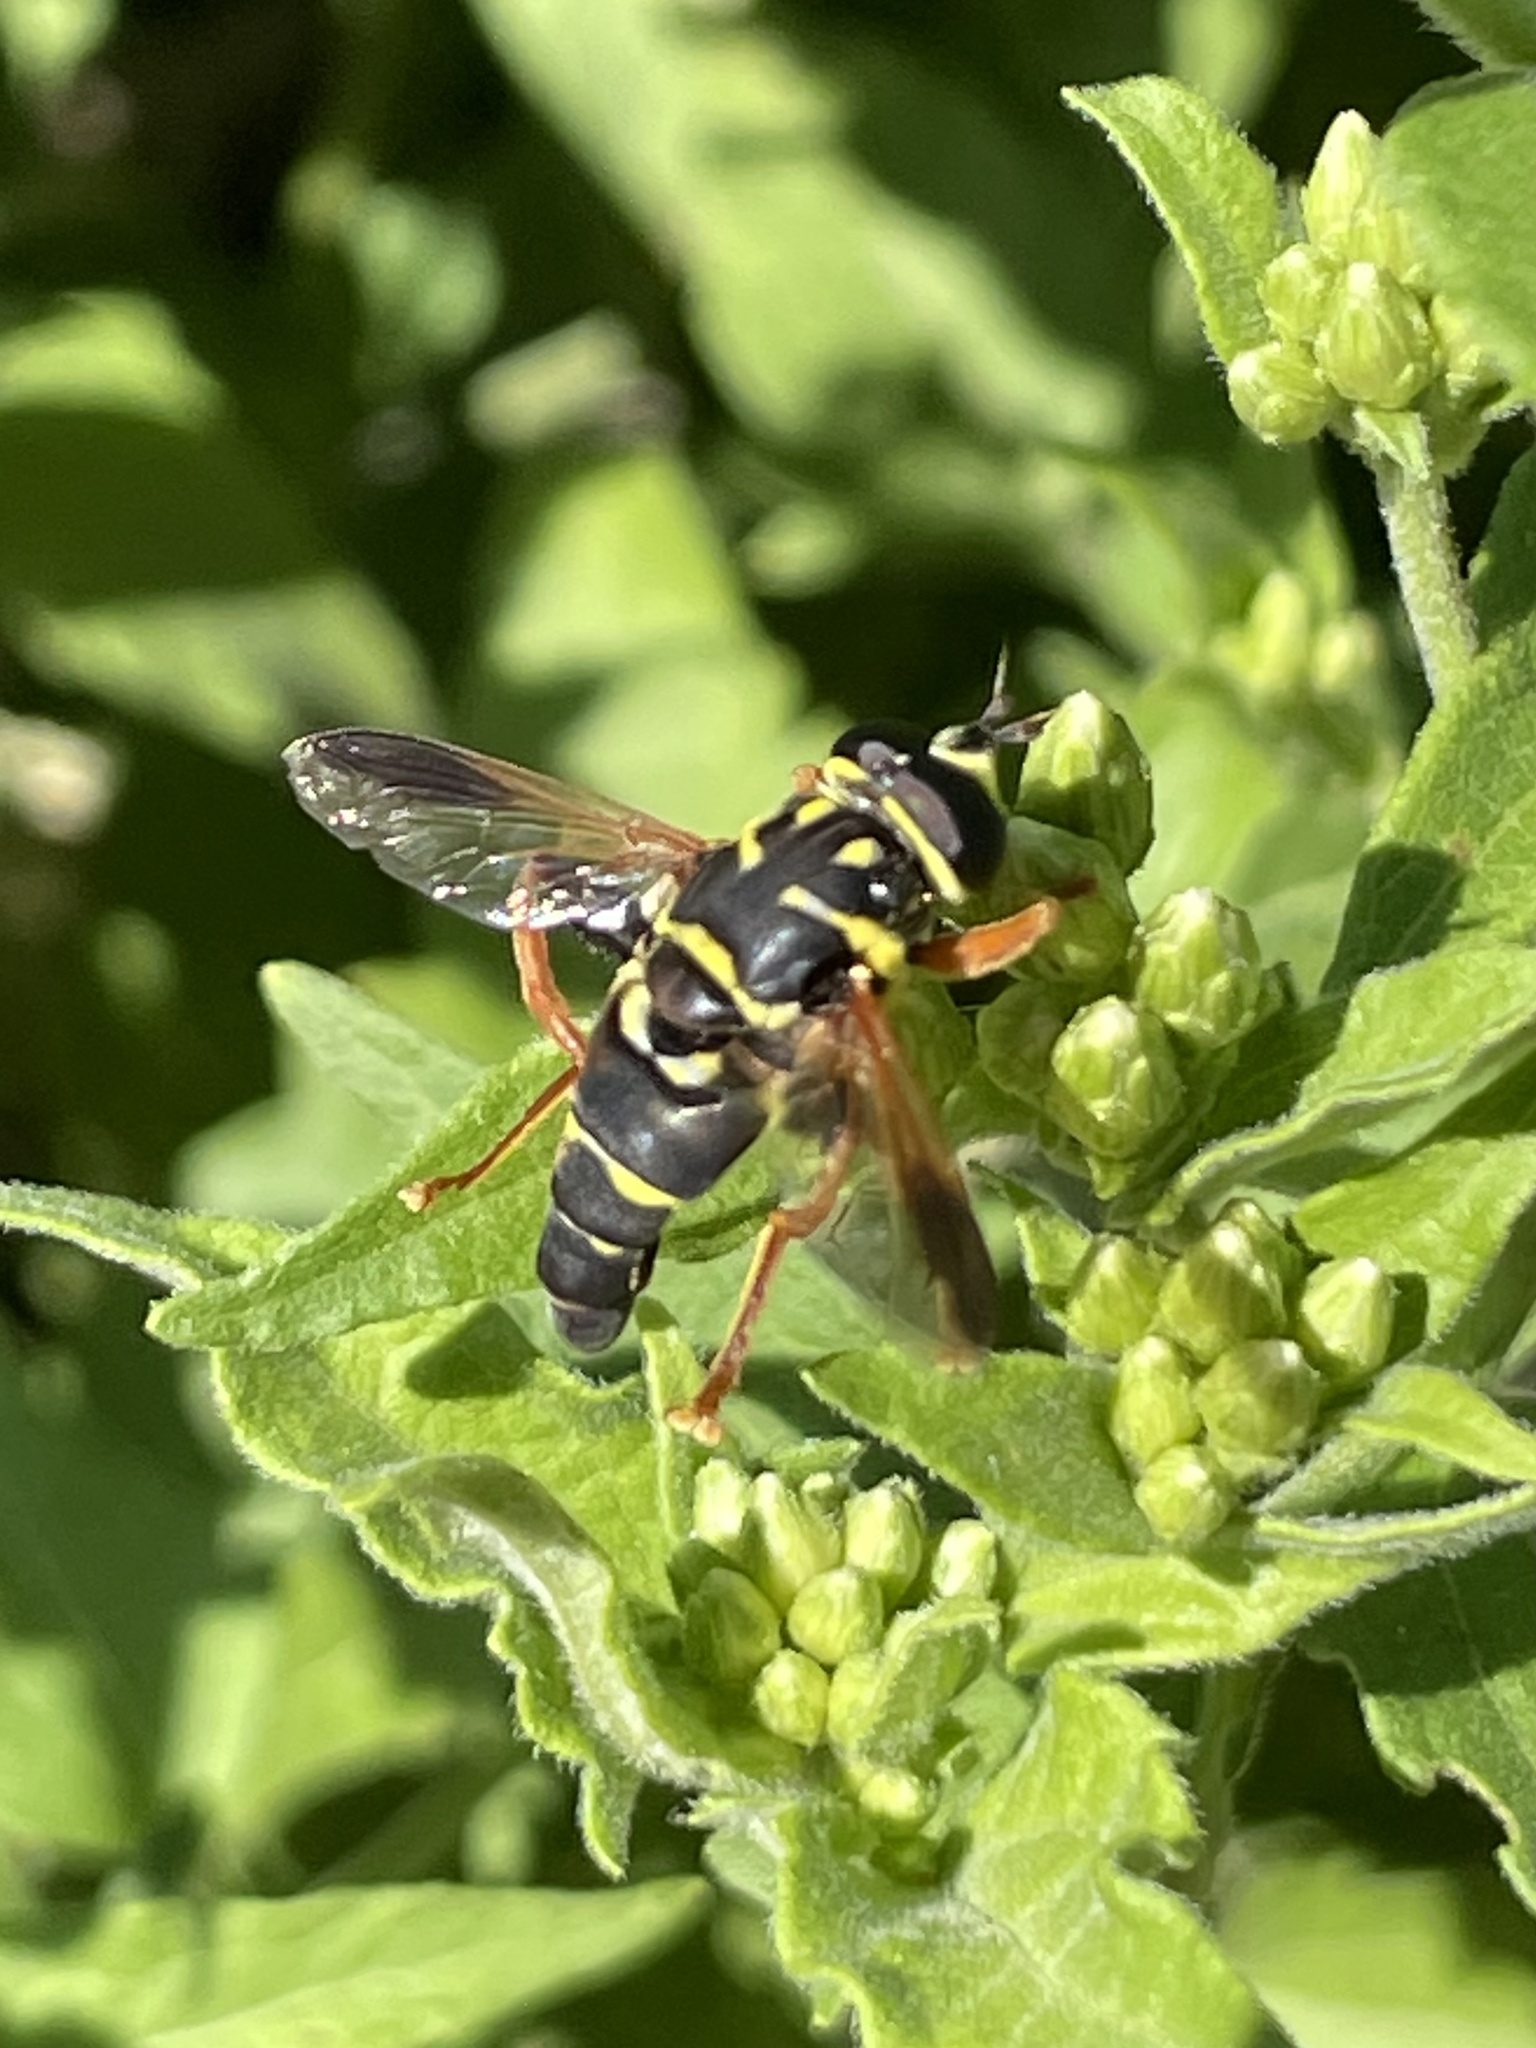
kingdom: Animalia
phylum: Arthropoda
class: Insecta
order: Diptera
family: Syrphidae
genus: Meromacrus
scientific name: Meromacrus acutus
